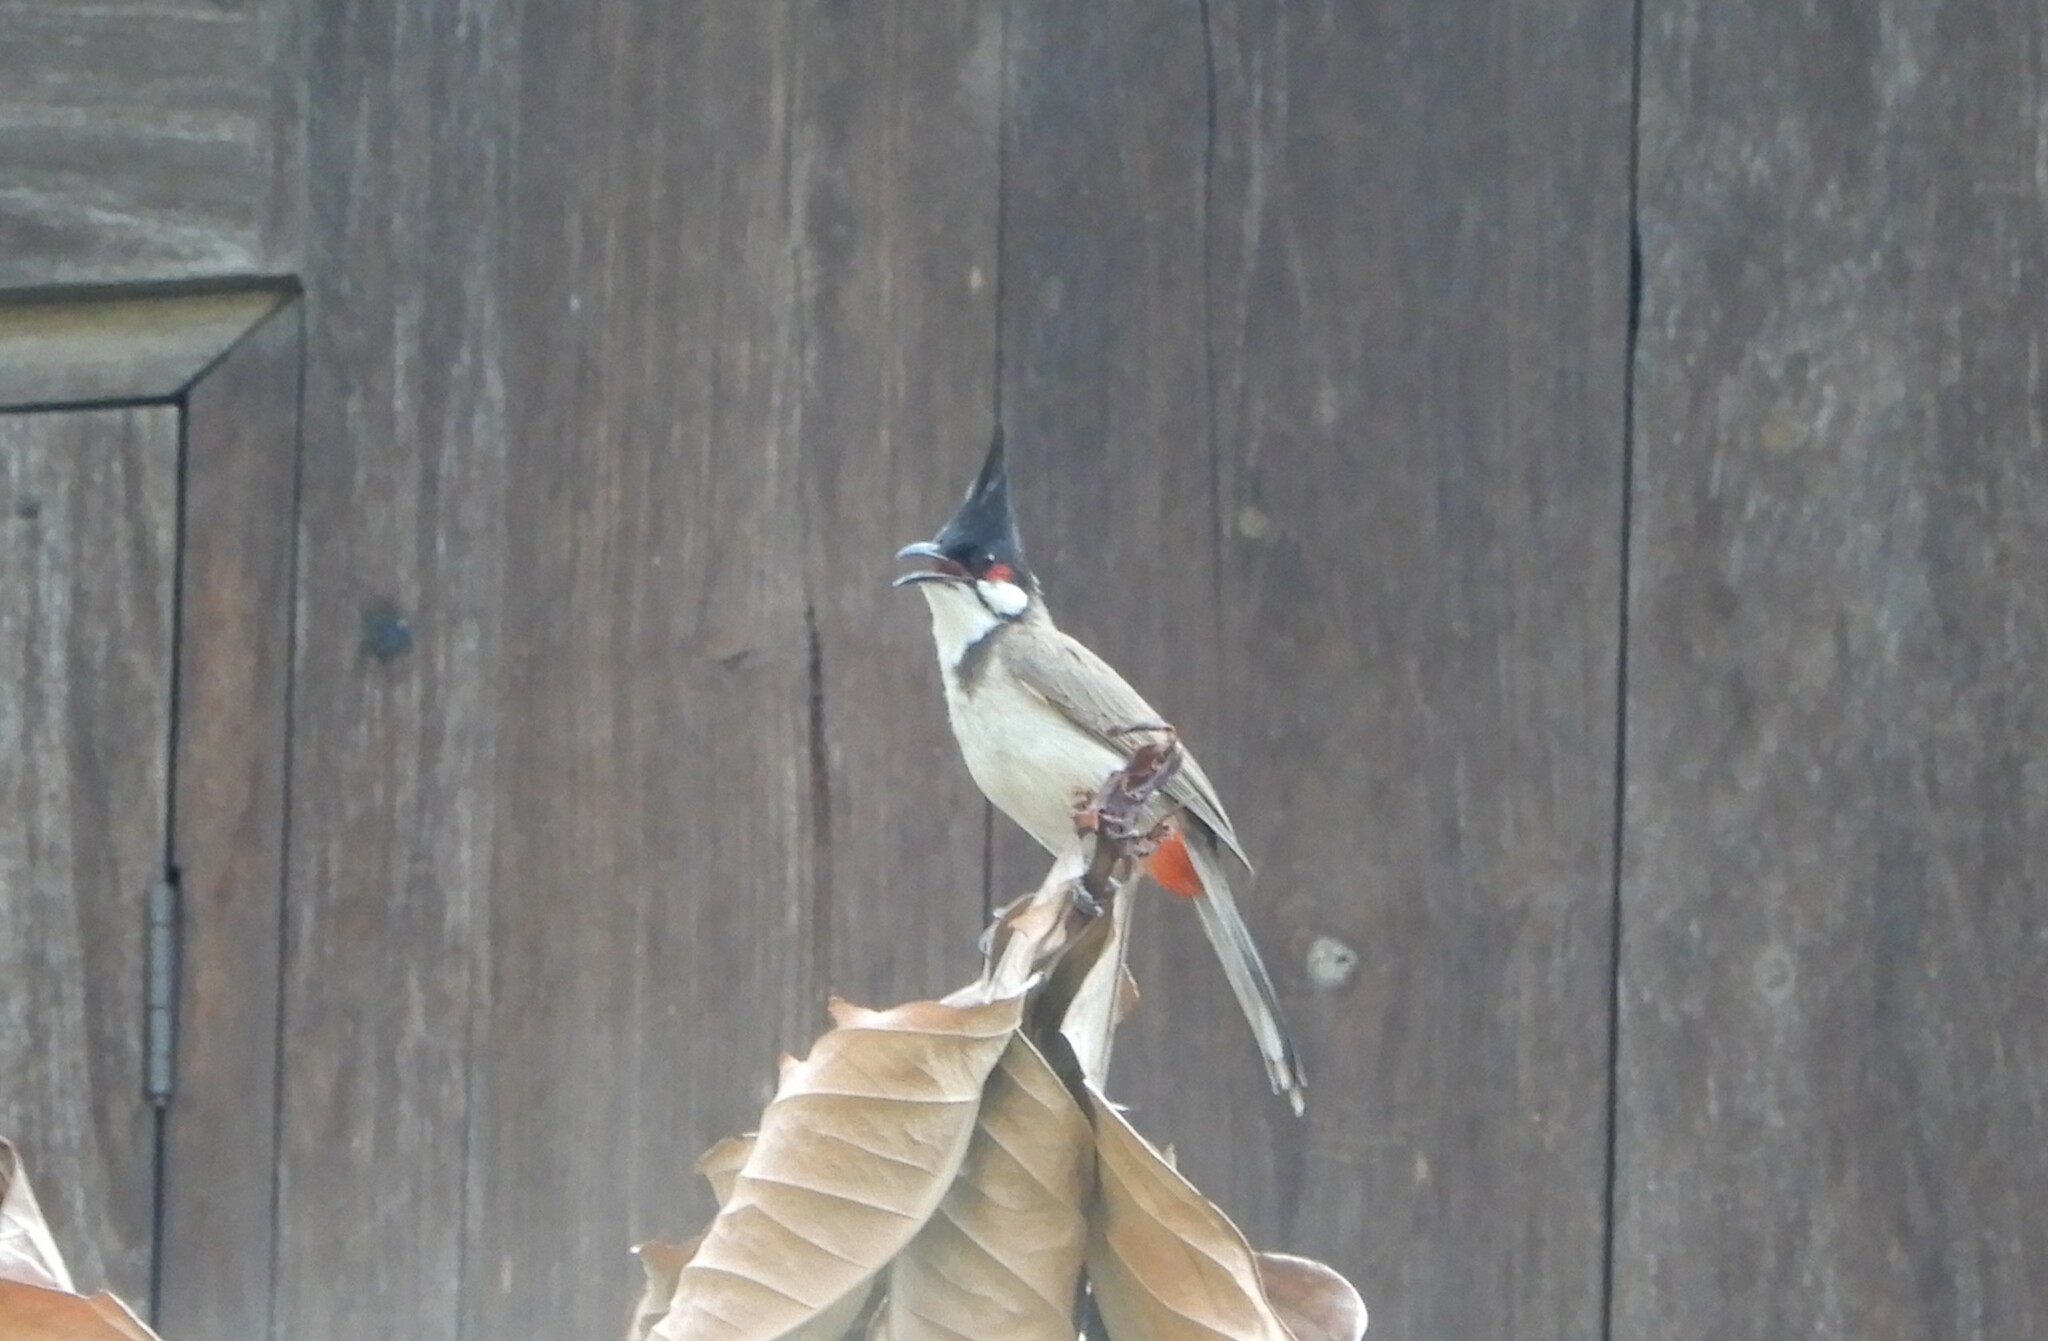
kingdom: Animalia
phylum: Chordata
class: Aves
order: Passeriformes
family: Pycnonotidae
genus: Pycnonotus
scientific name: Pycnonotus jocosus
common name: Red-whiskered bulbul
